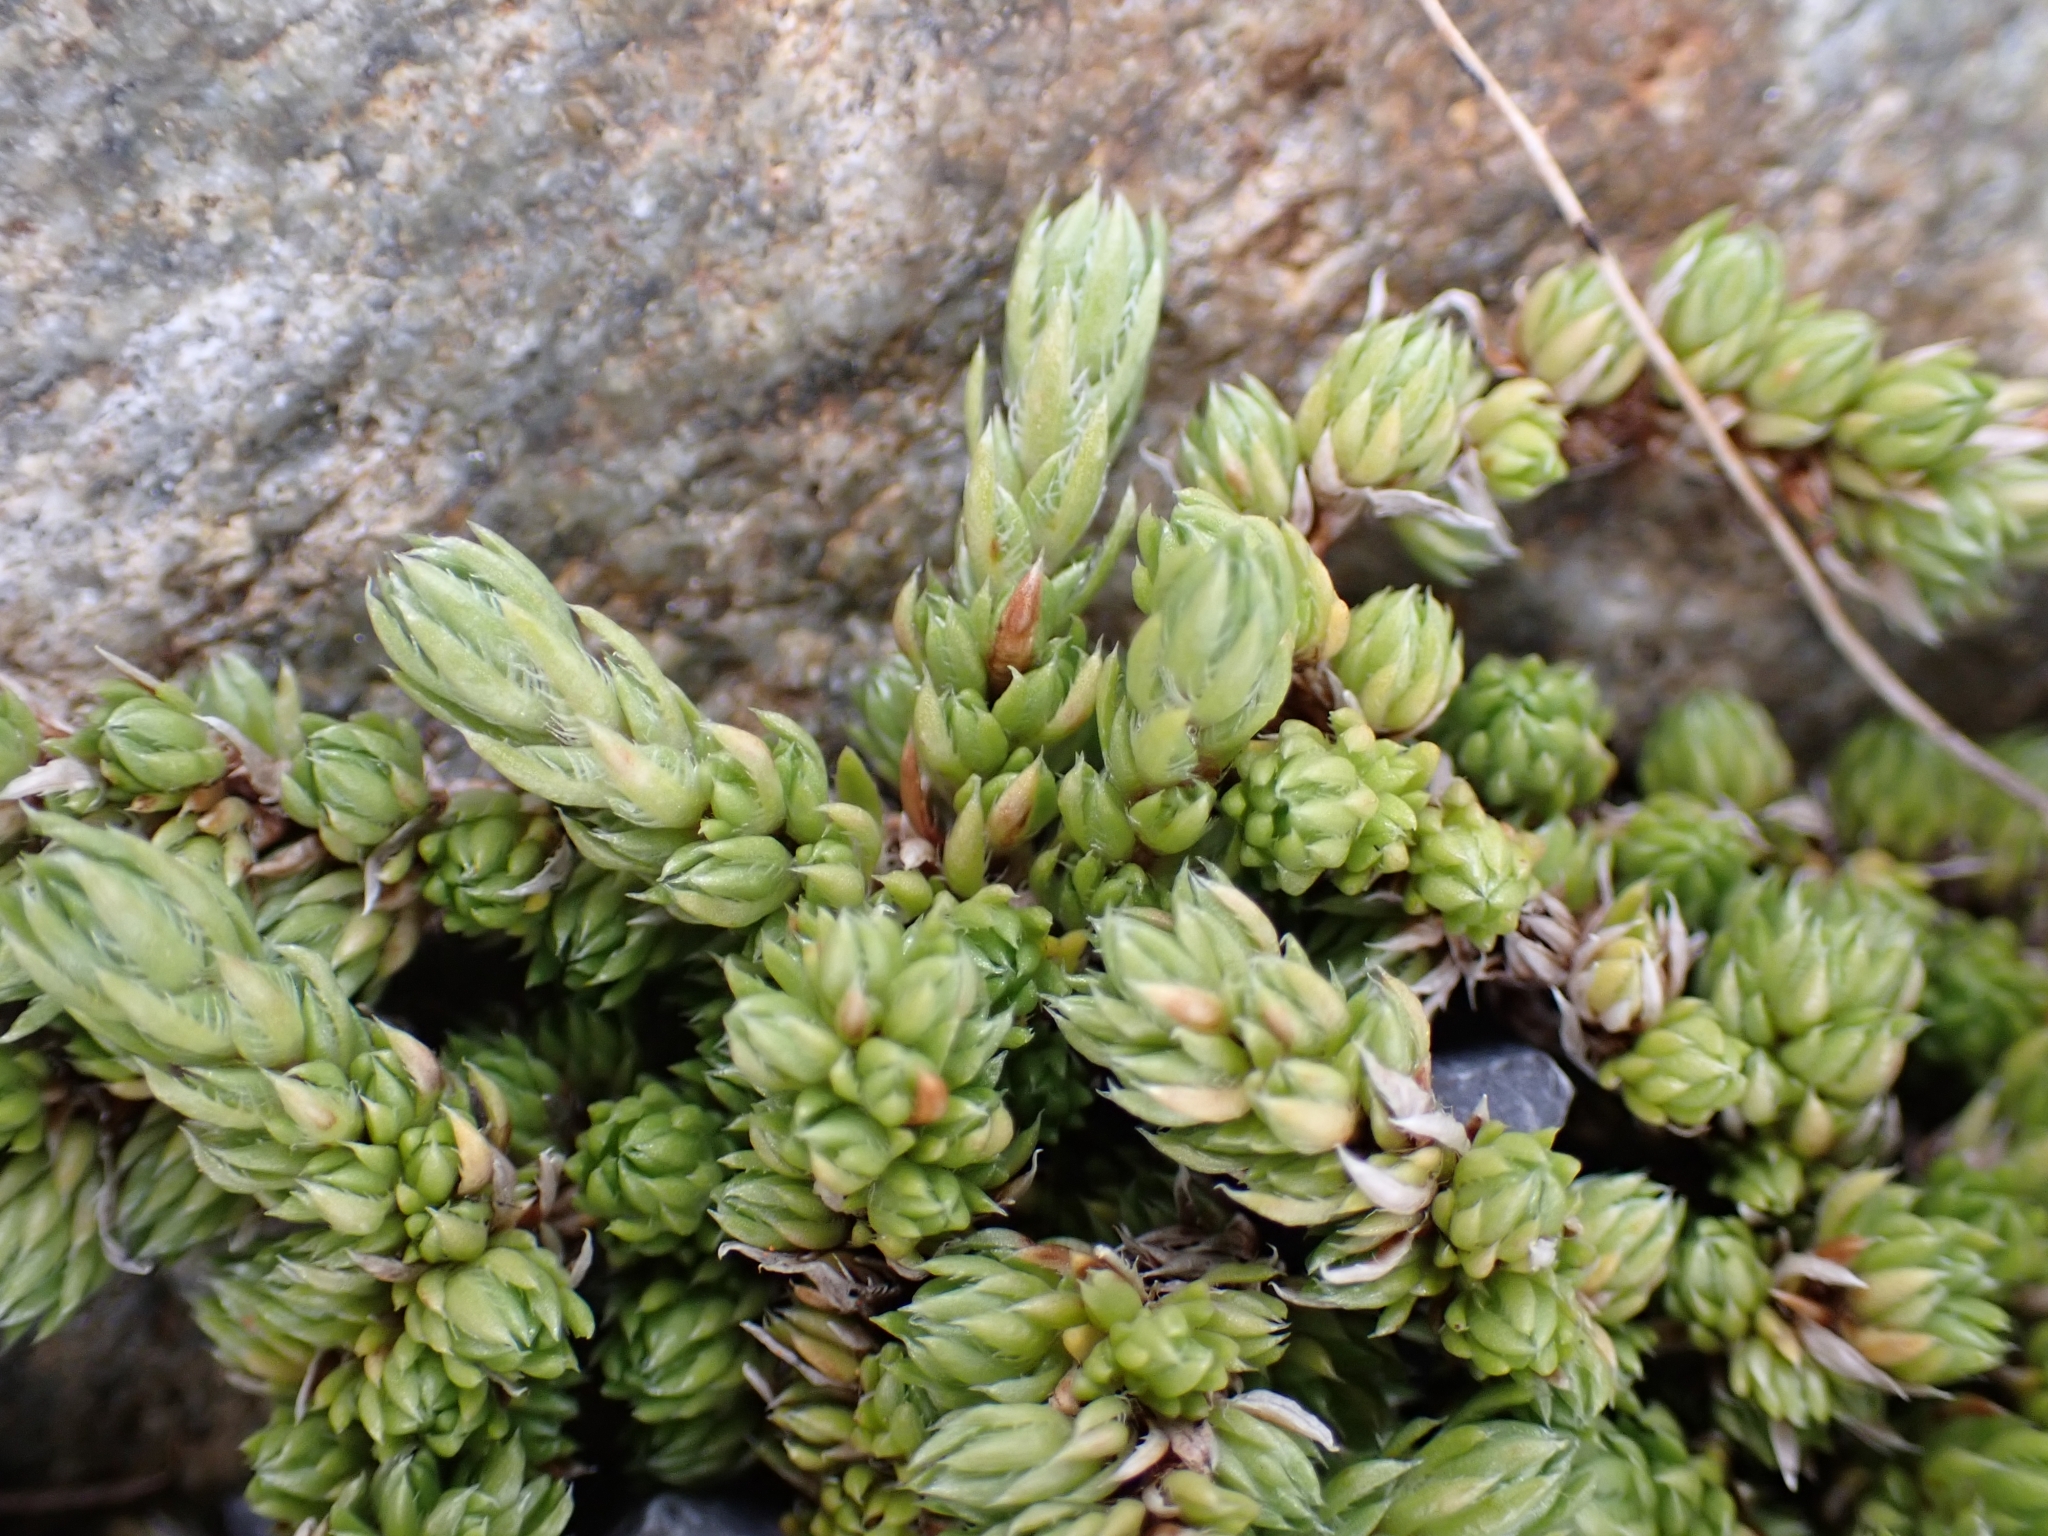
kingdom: Plantae
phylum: Tracheophyta
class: Magnoliopsida
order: Saxifragales
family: Saxifragaceae
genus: Saxifraga
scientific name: Saxifraga bryoides
